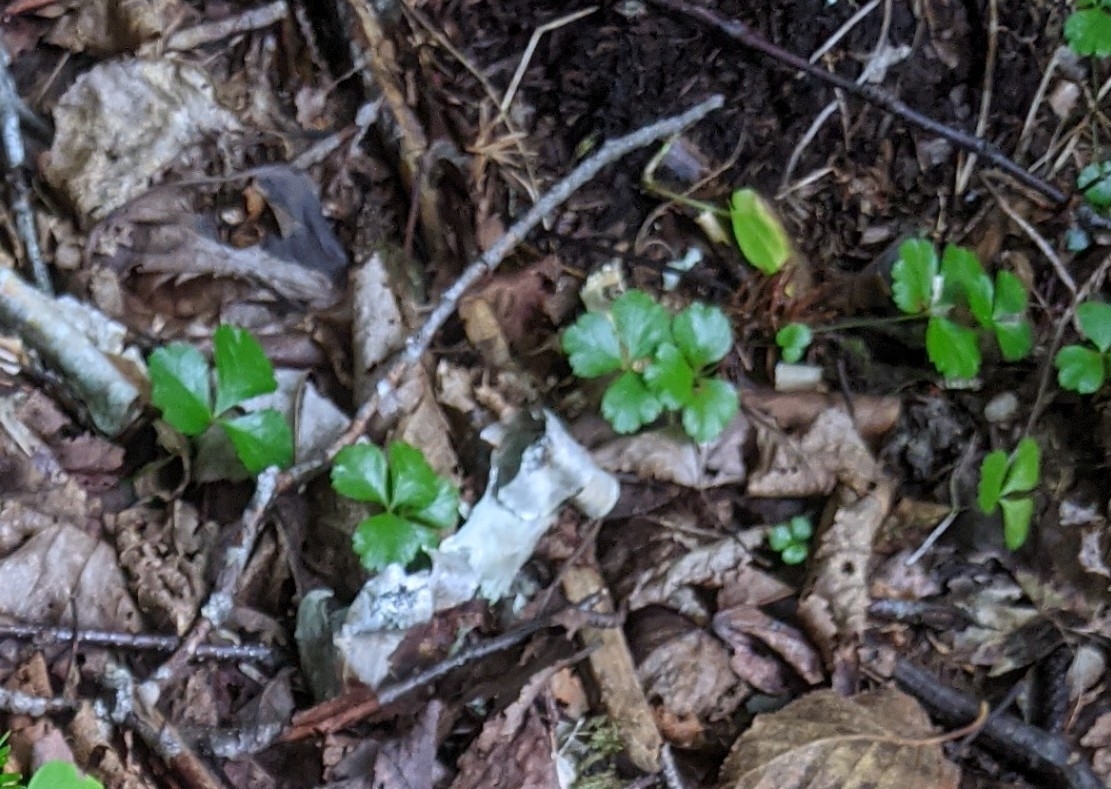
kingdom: Plantae
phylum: Tracheophyta
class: Magnoliopsida
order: Ranunculales
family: Ranunculaceae
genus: Coptis
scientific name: Coptis trifolia
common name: Canker-root
